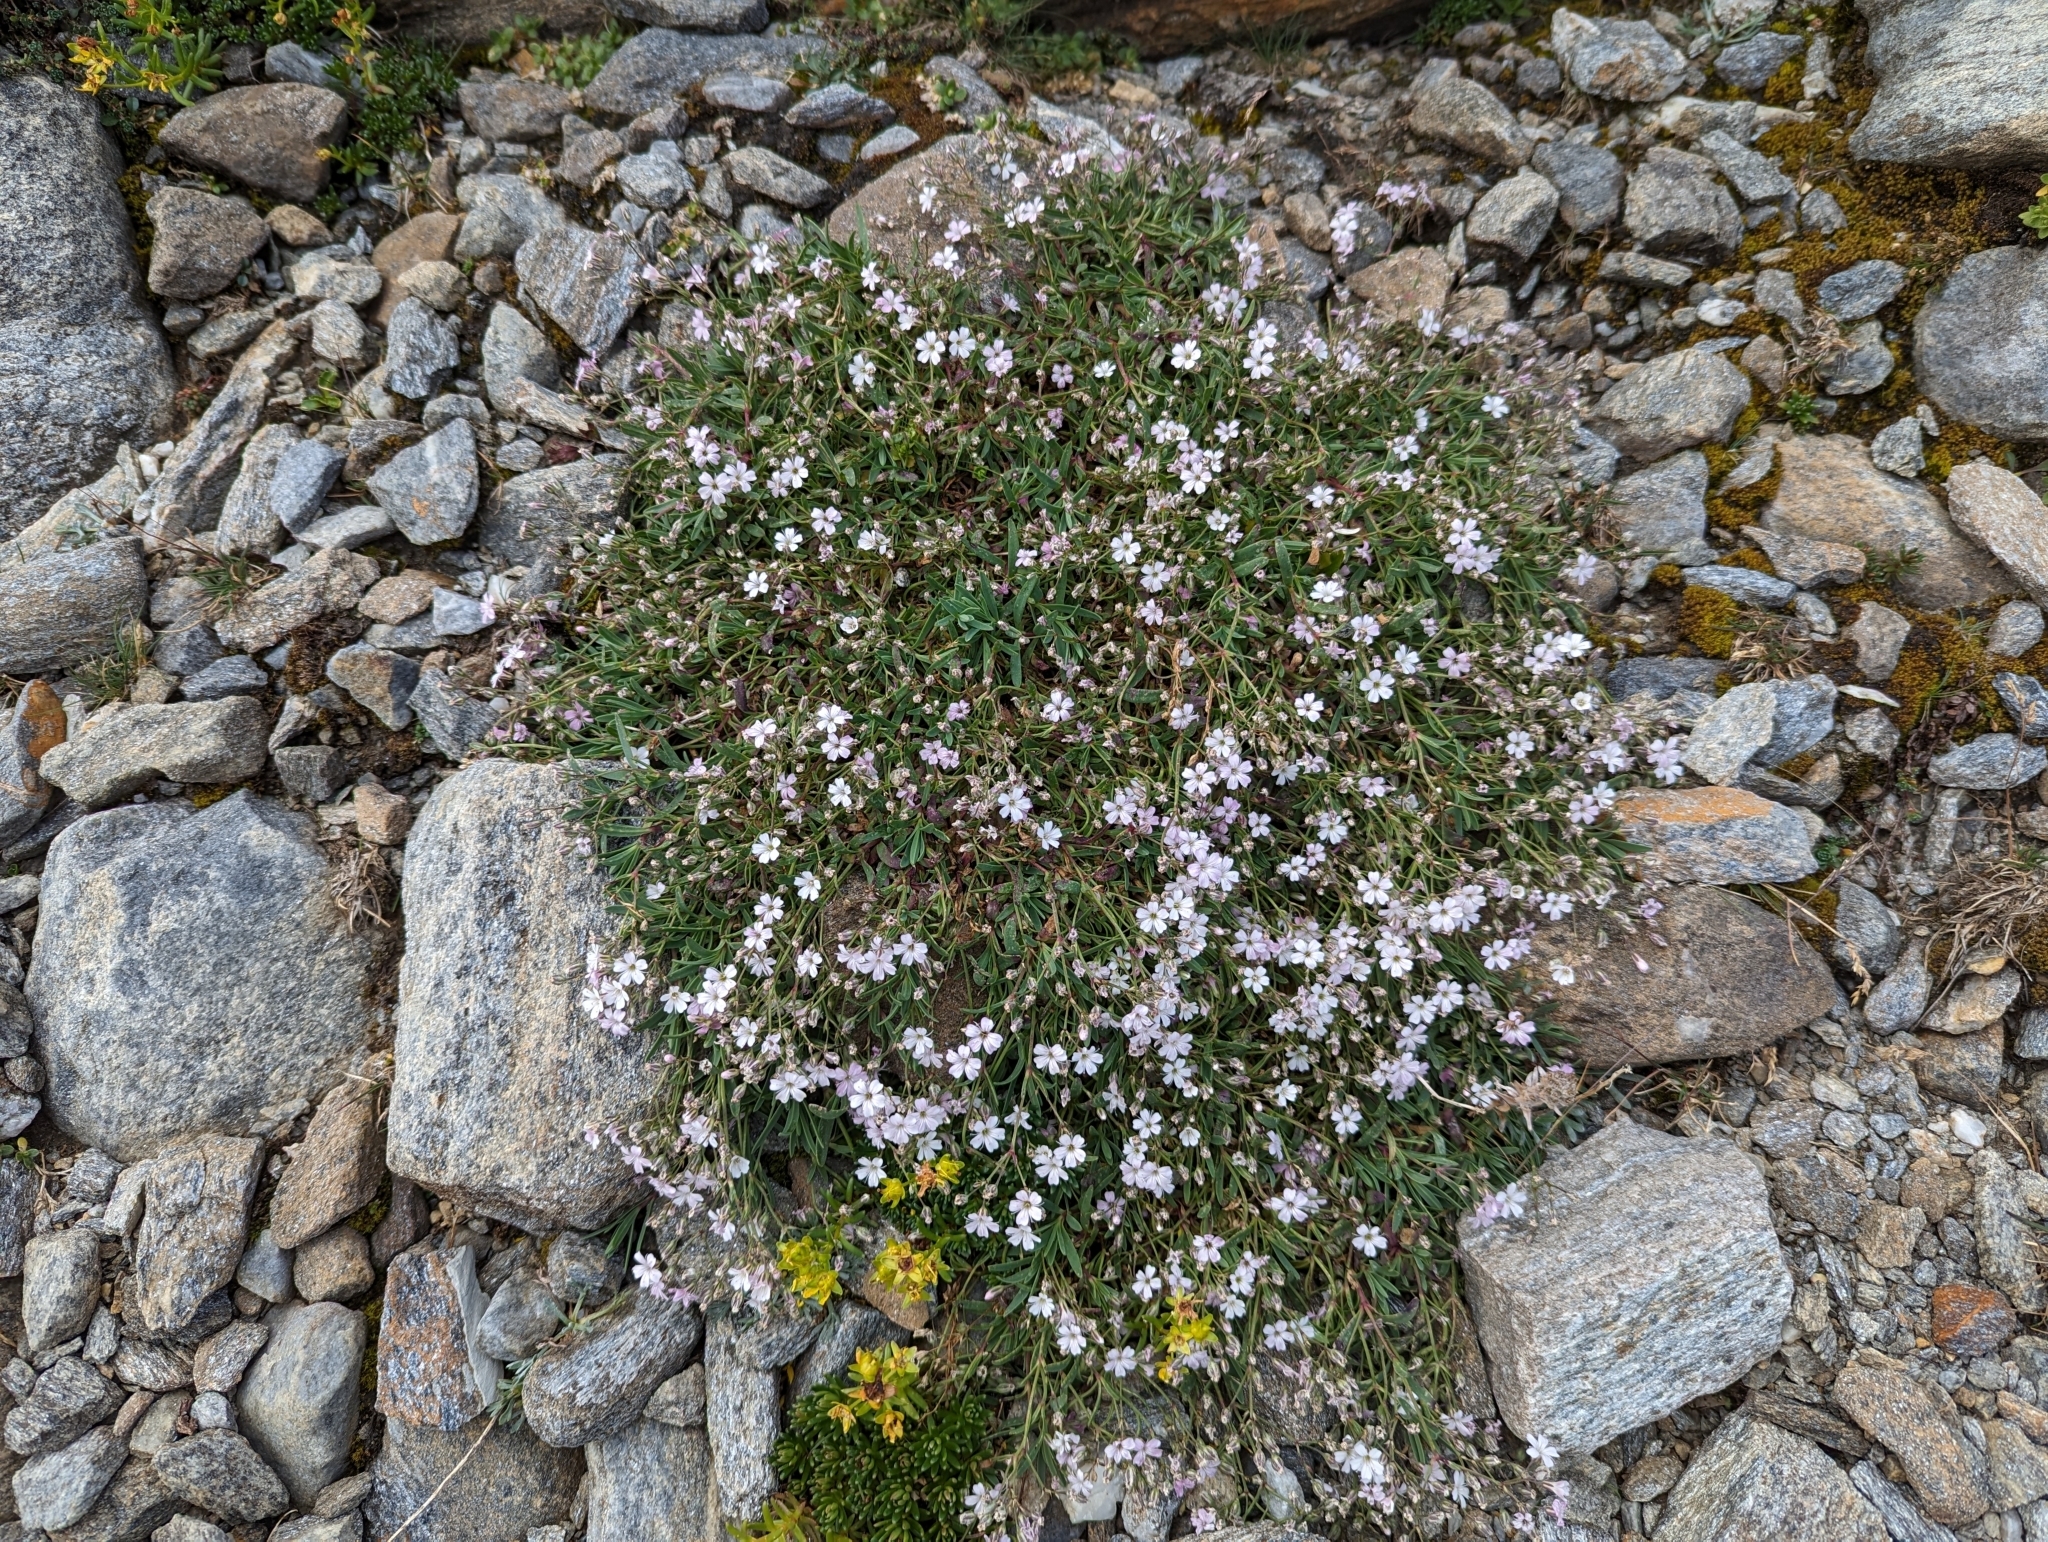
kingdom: Plantae
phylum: Tracheophyta
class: Magnoliopsida
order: Caryophyllales
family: Caryophyllaceae
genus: Gypsophila
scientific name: Gypsophila repens
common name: Creeping baby's-breath
